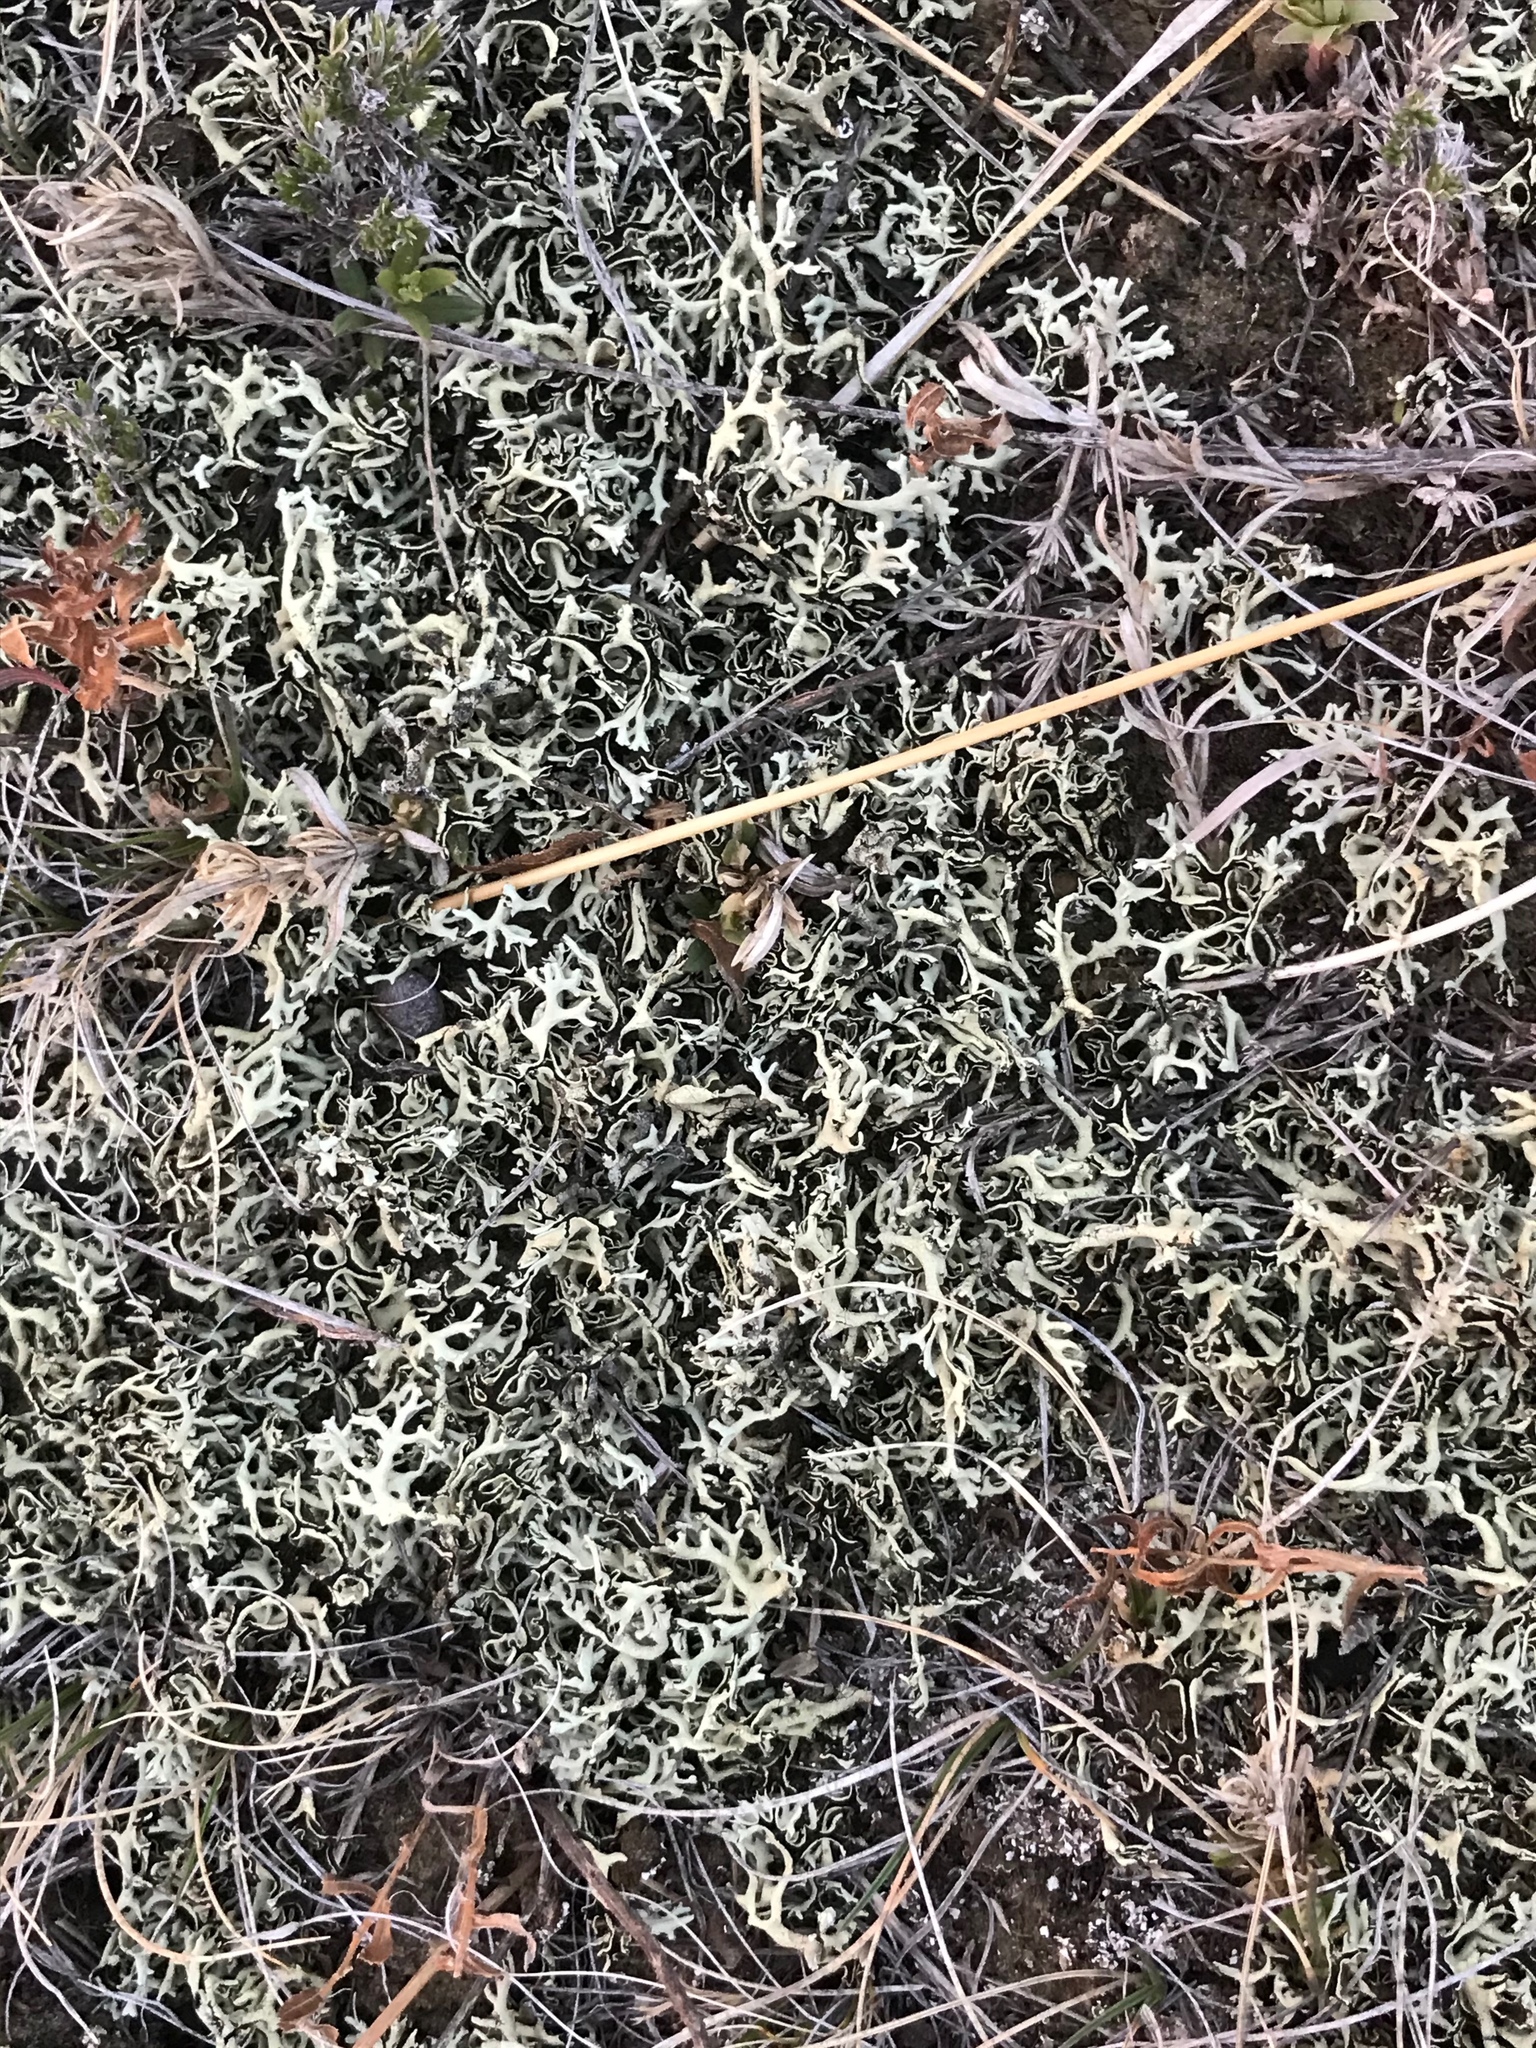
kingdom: Fungi
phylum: Ascomycota
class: Lecanoromycetes
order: Lecanorales
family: Parmeliaceae
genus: Xanthoparmelia
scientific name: Xanthoparmelia chlorochroa
